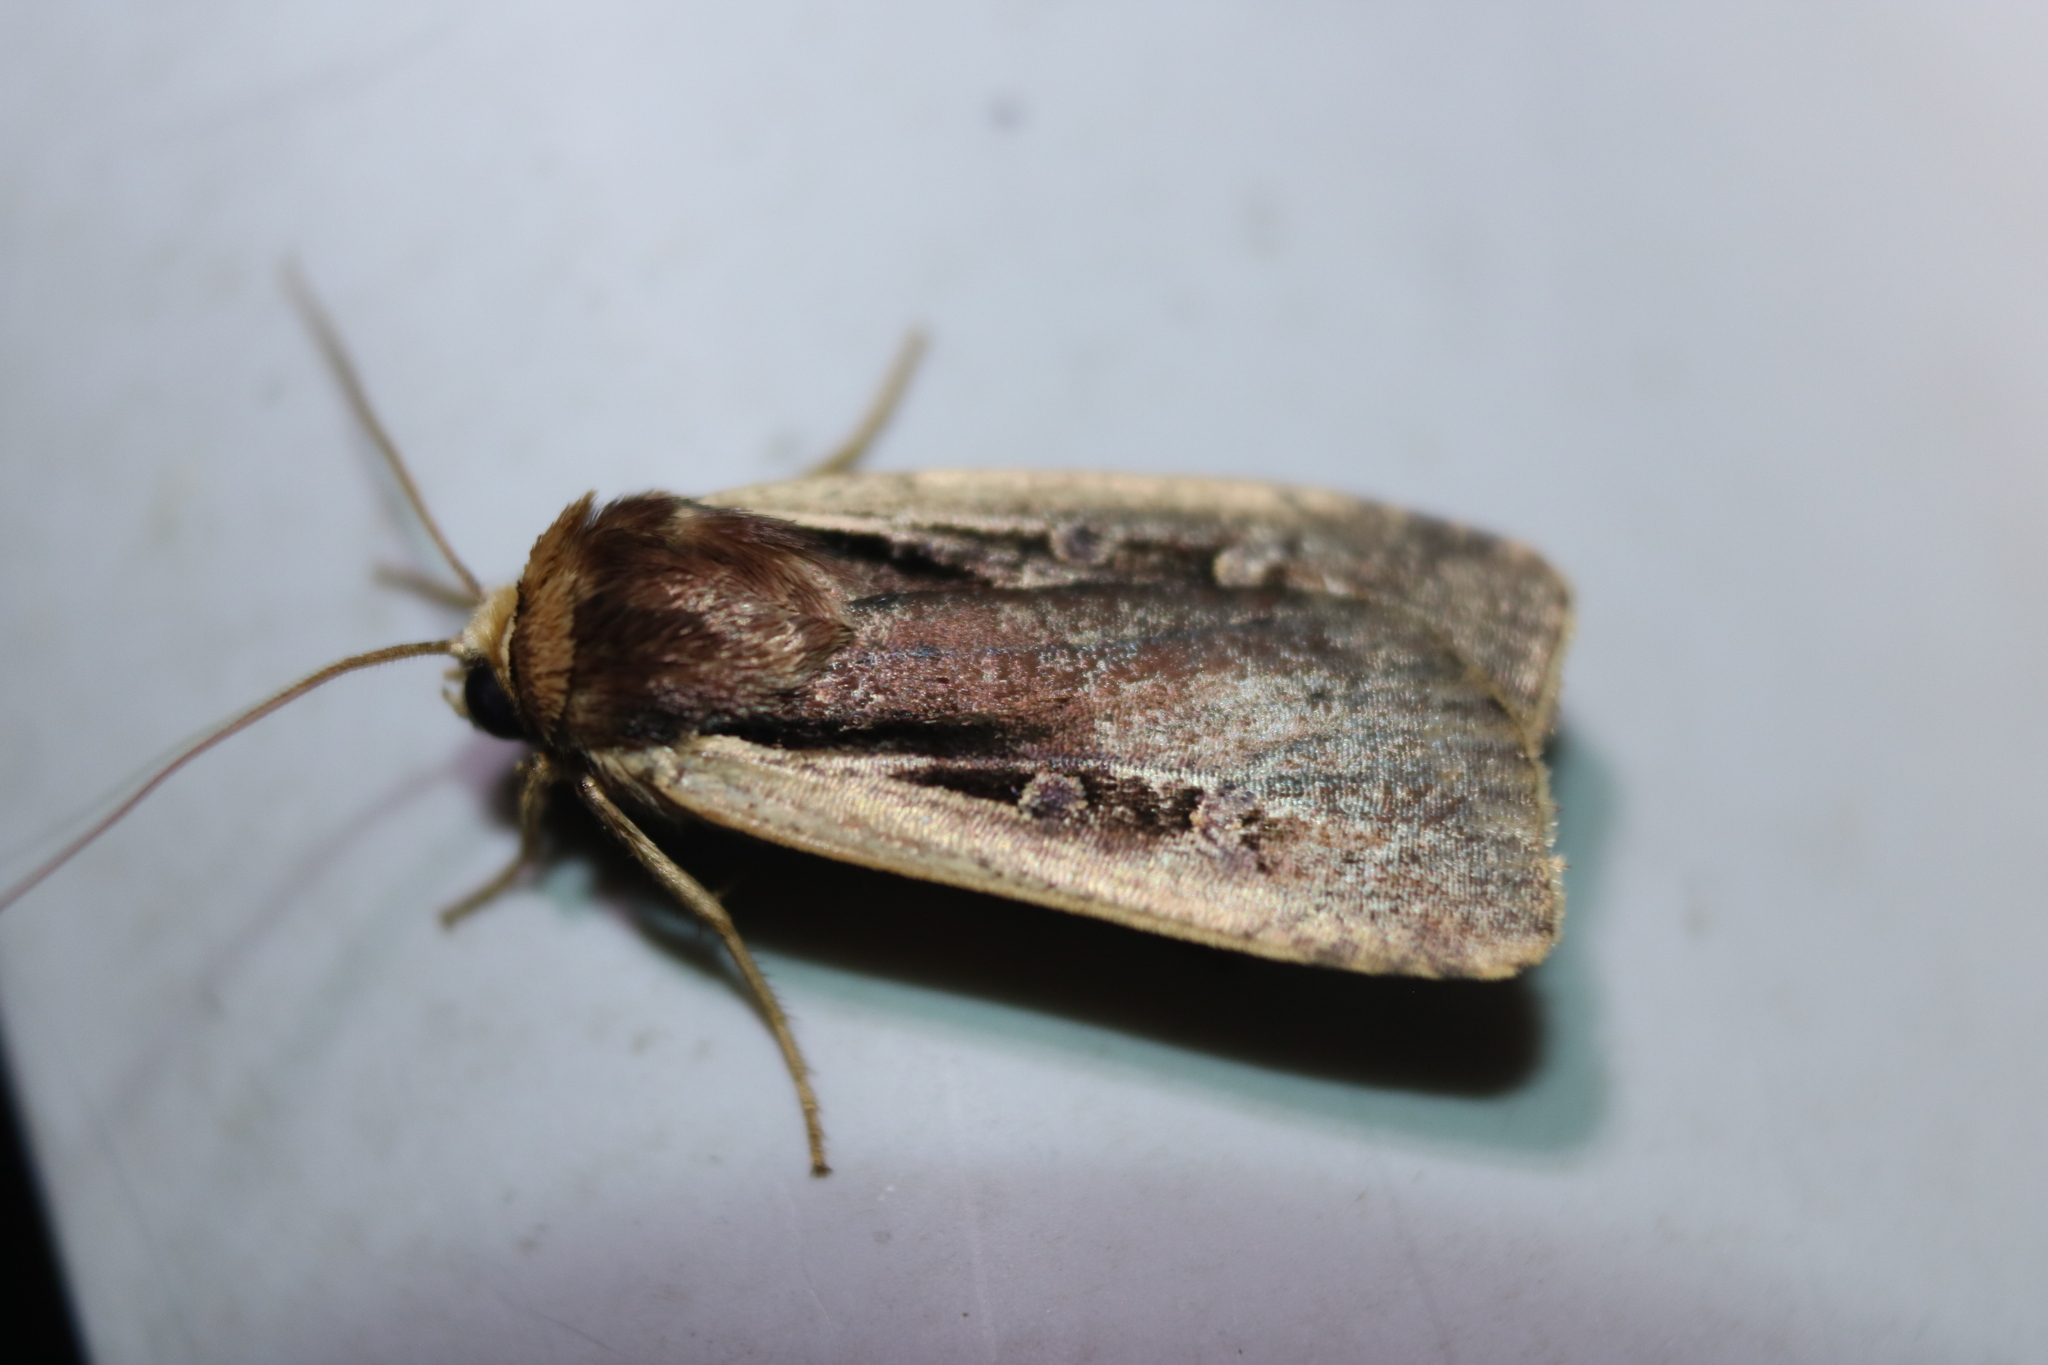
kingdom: Animalia
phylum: Arthropoda
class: Insecta
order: Lepidoptera
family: Noctuidae
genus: Ochropleura
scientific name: Ochropleura implecta
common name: Flame-shouldered dart
